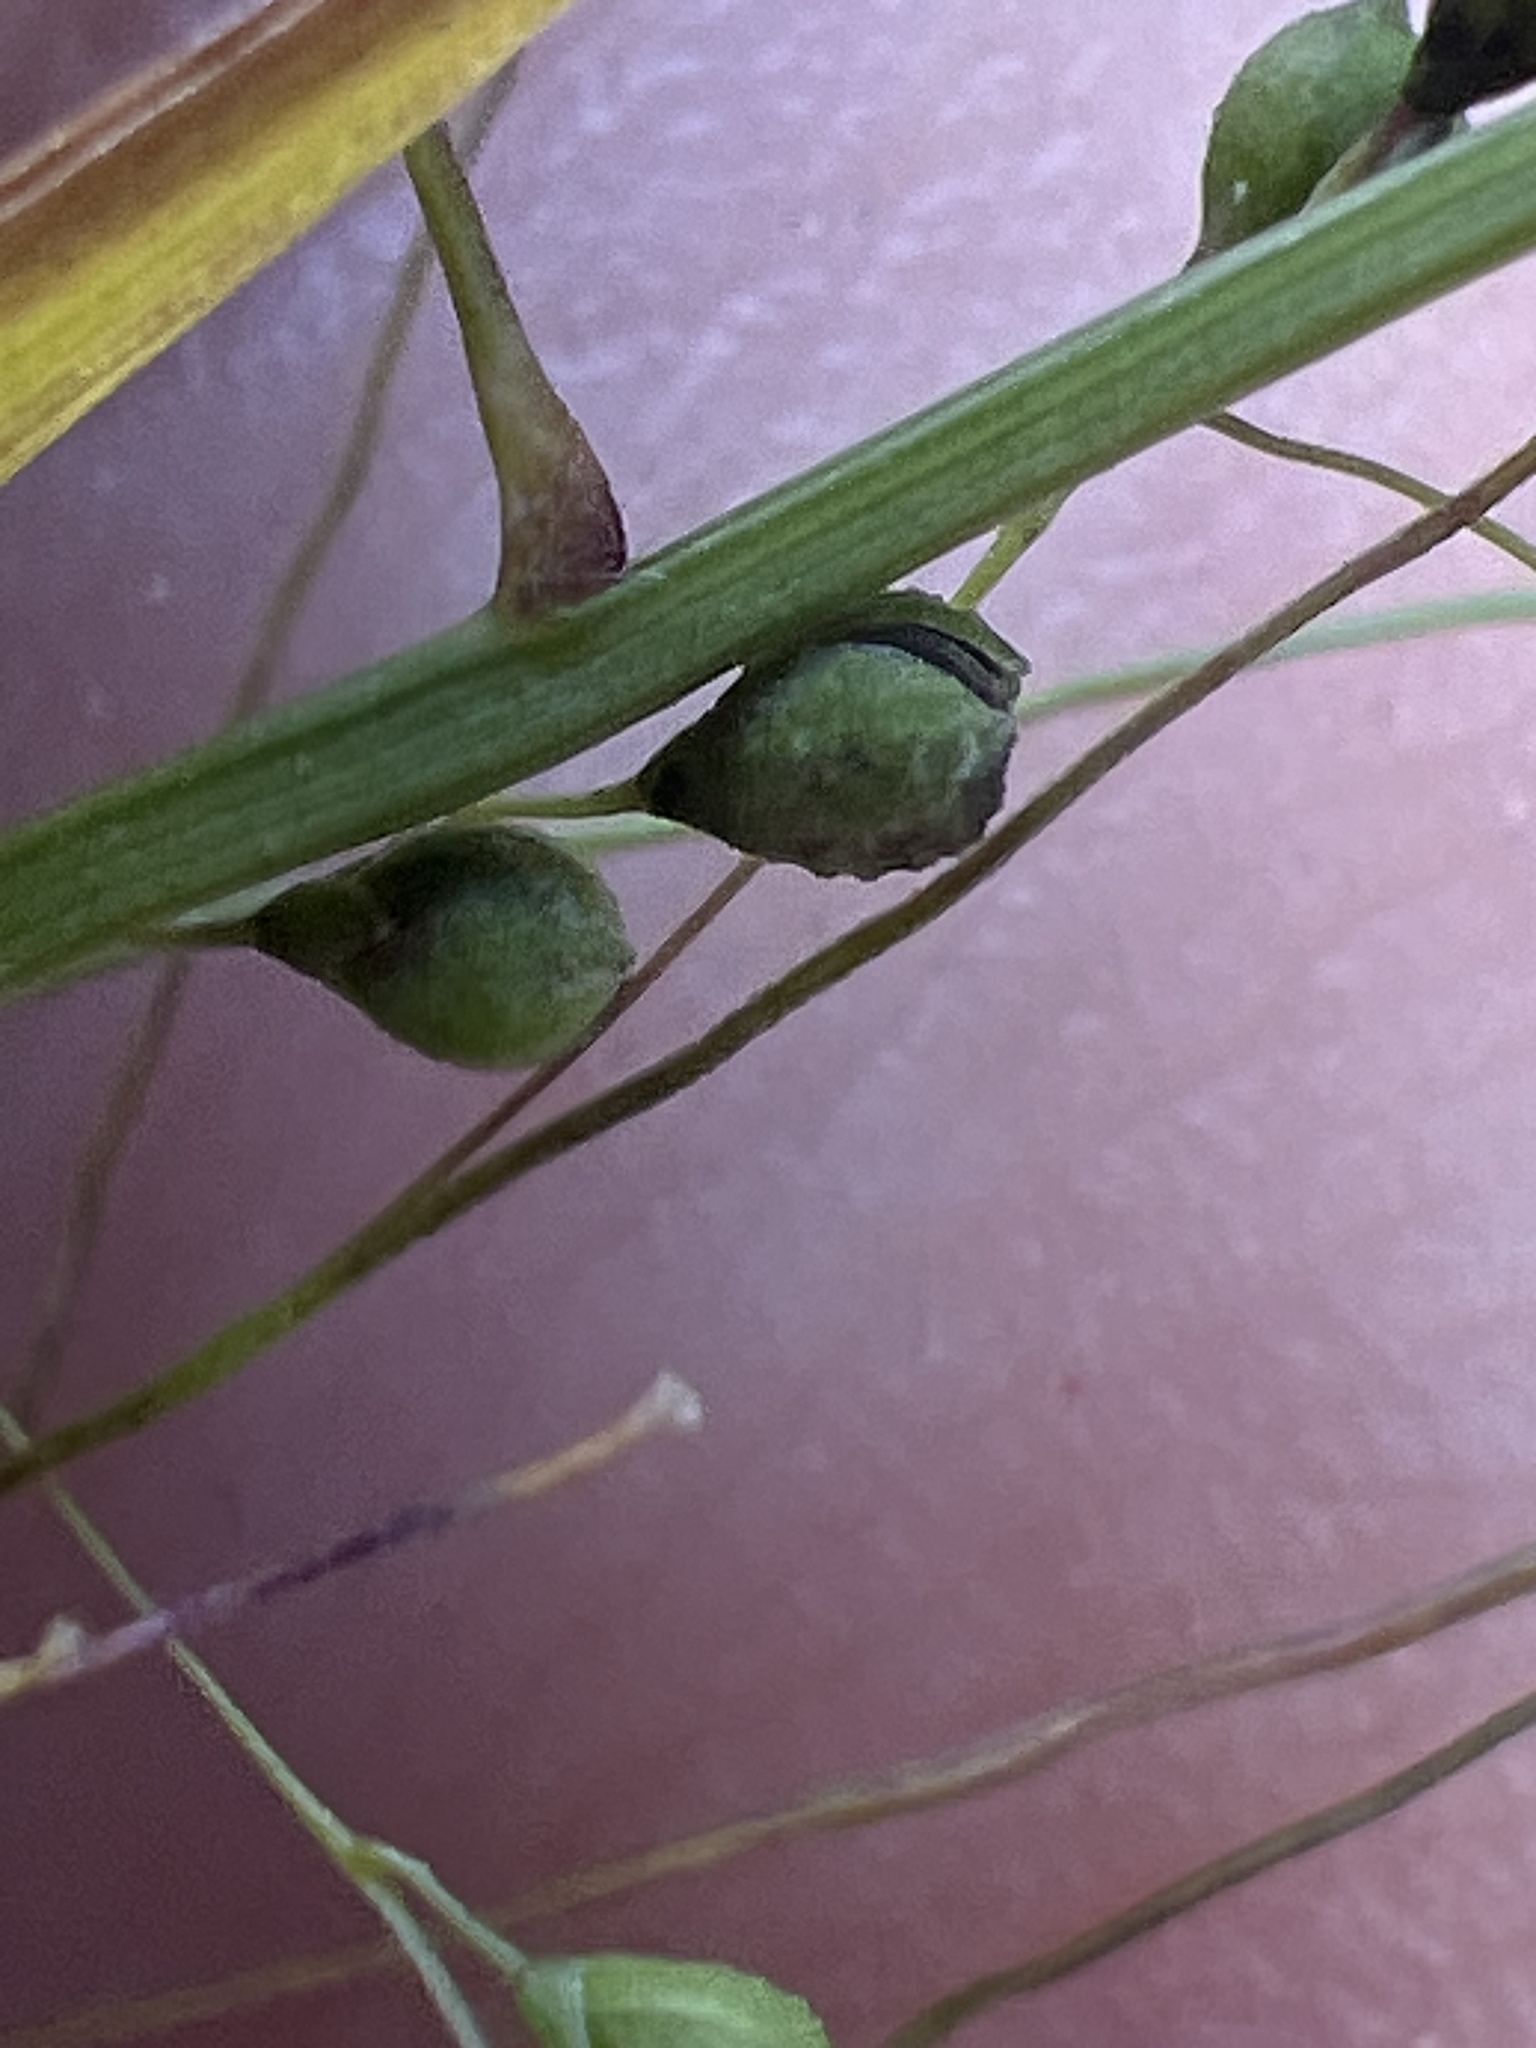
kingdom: Plantae
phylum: Tracheophyta
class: Liliopsida
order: Poales
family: Poaceae
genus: Kellochloa
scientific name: Kellochloa verrucosa
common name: Warty panic grass
